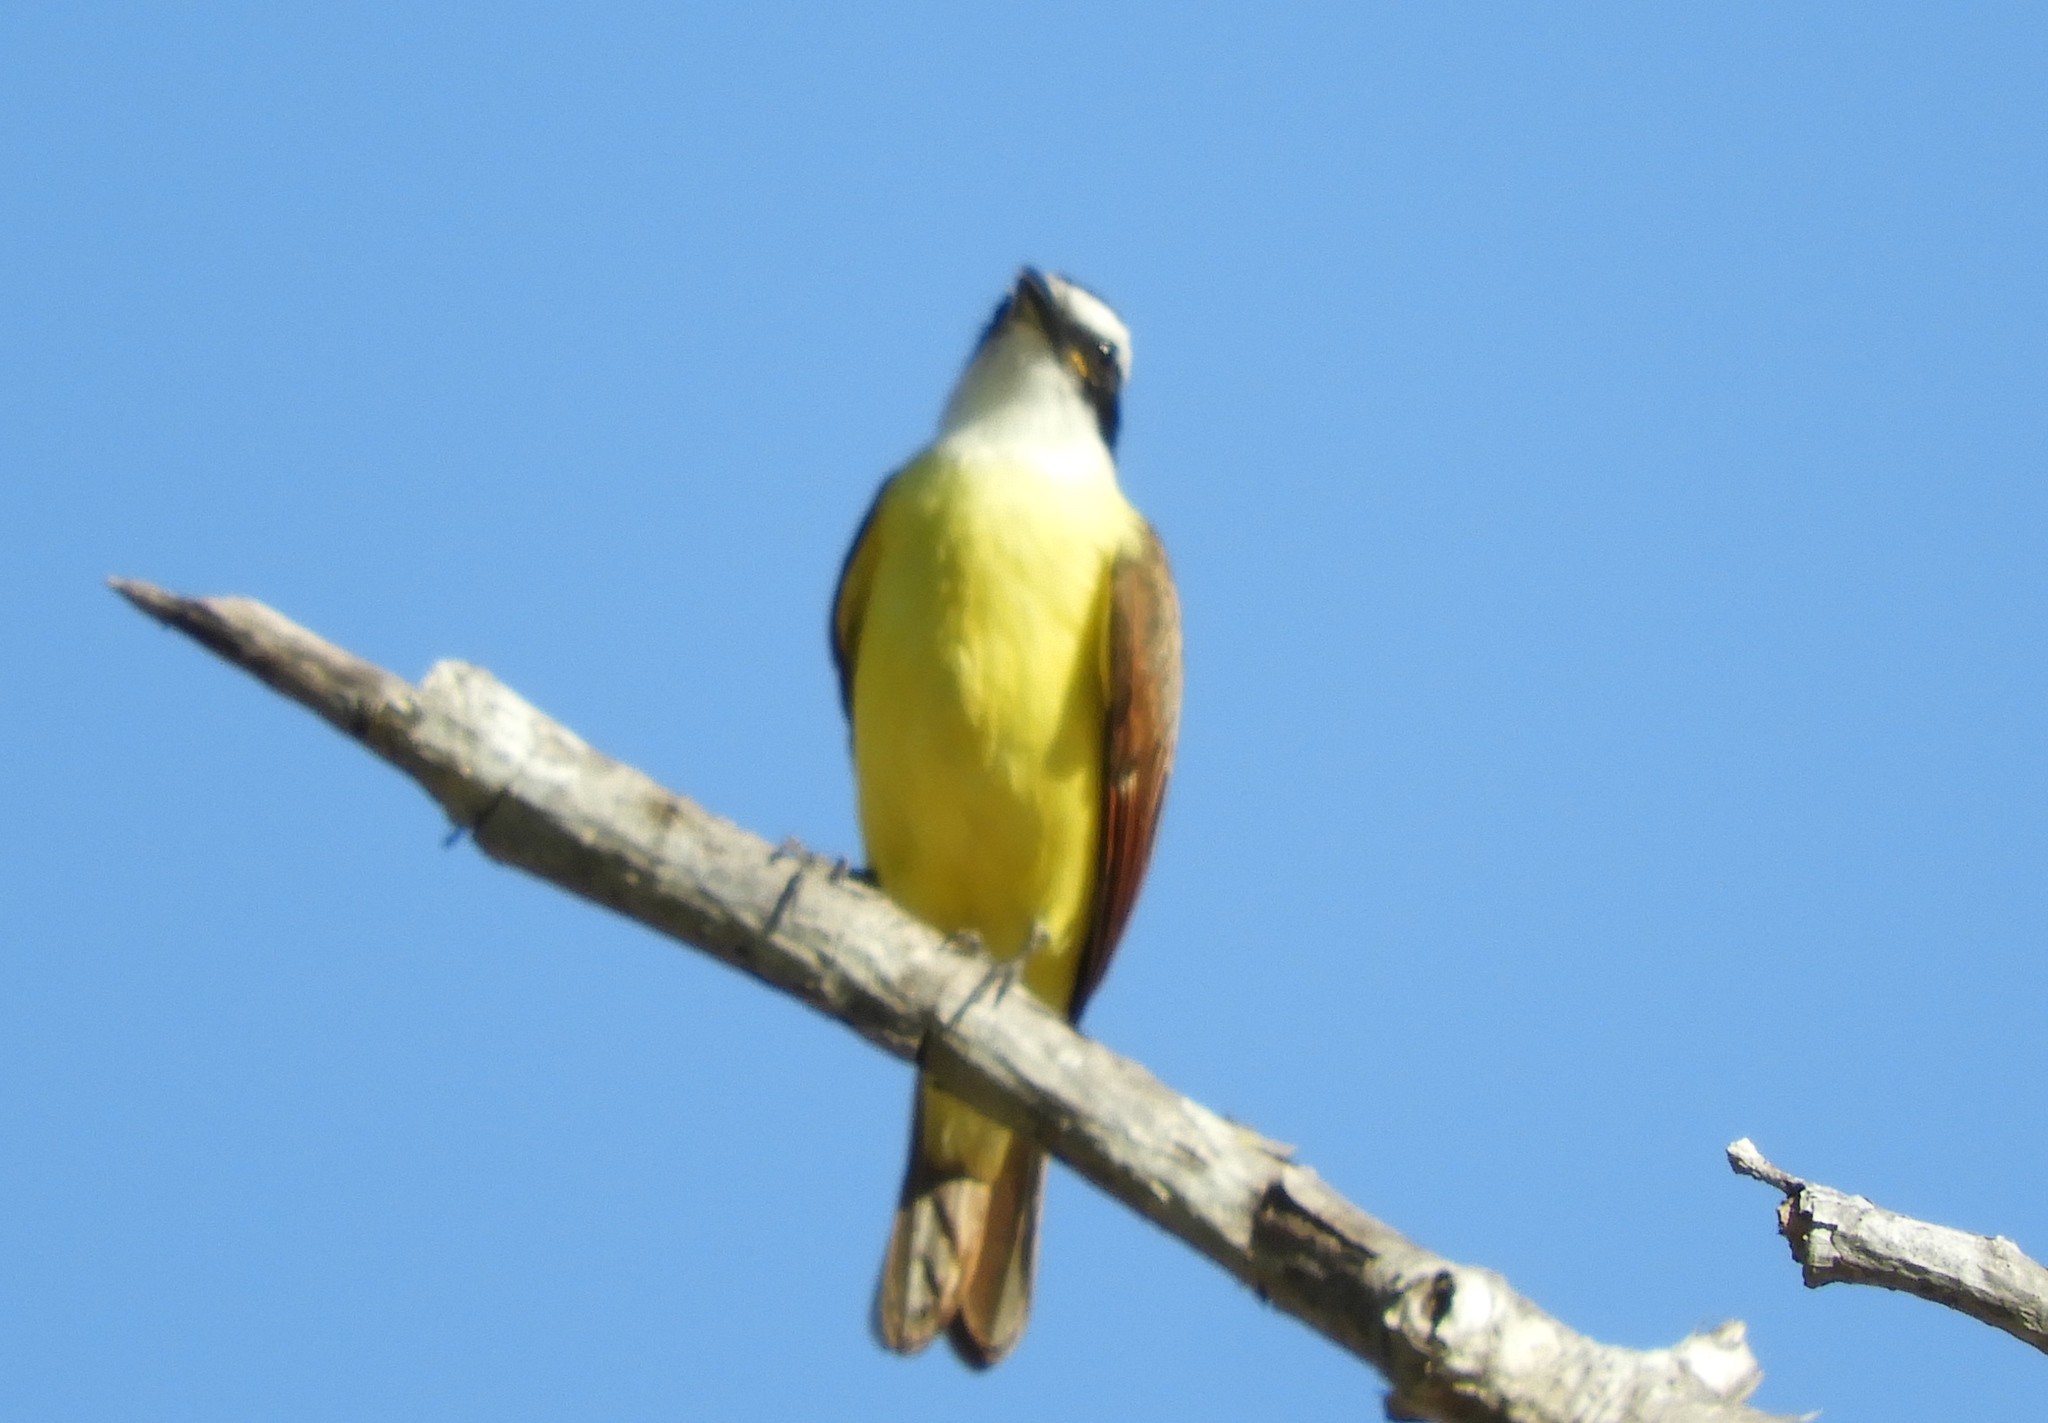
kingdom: Animalia
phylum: Chordata
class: Aves
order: Passeriformes
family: Tyrannidae
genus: Pitangus
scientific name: Pitangus sulphuratus
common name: Great kiskadee
